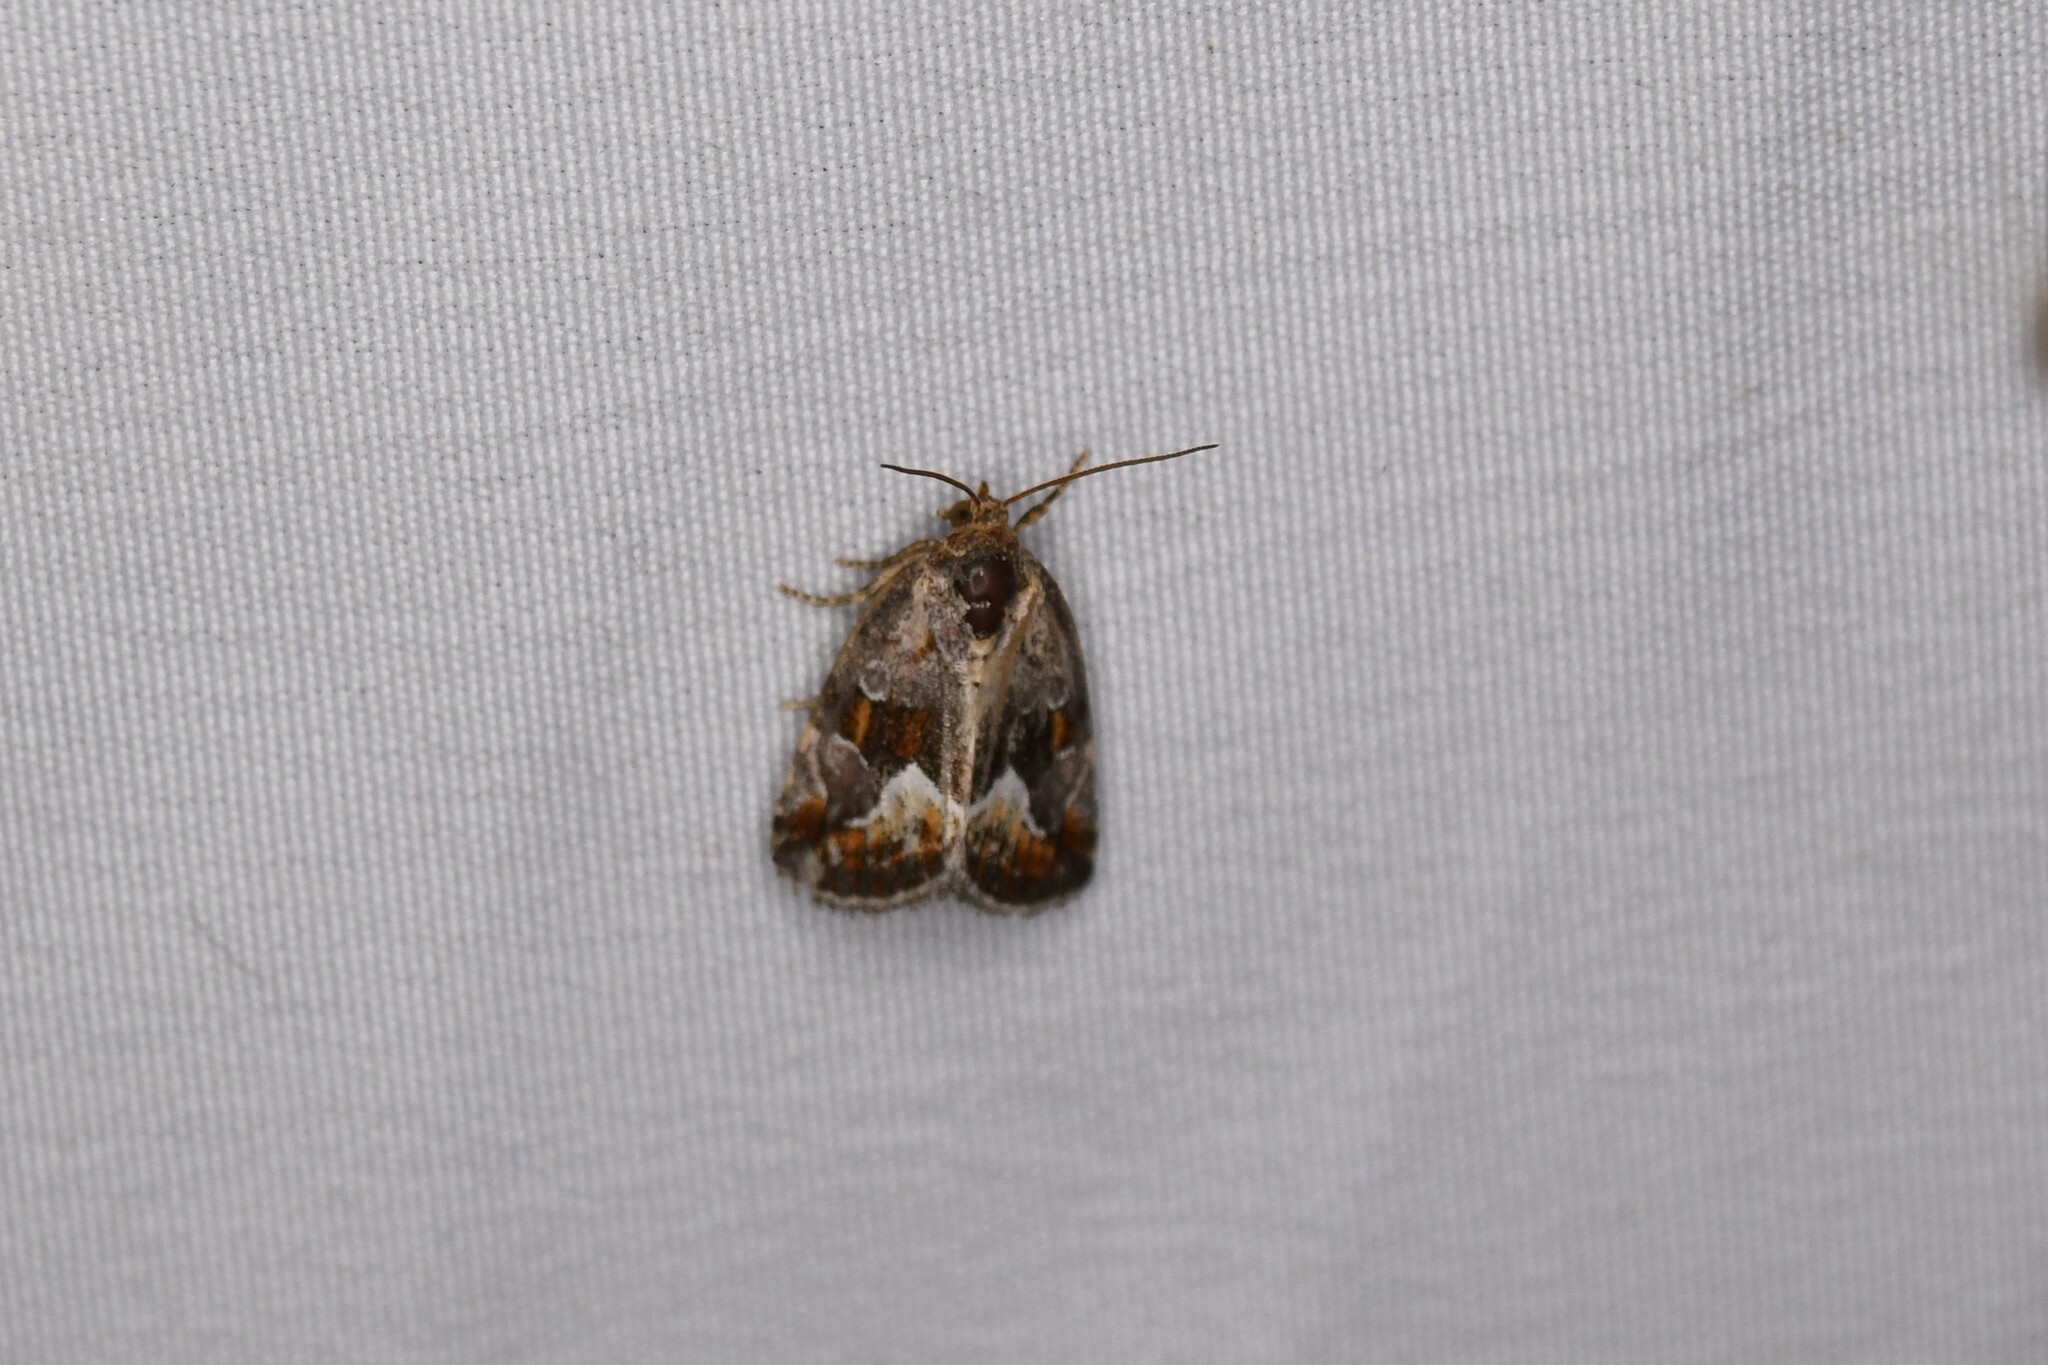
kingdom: Animalia
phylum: Arthropoda
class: Insecta
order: Lepidoptera
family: Noctuidae
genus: Deltote
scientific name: Deltote bellicula
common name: Bog glyph
